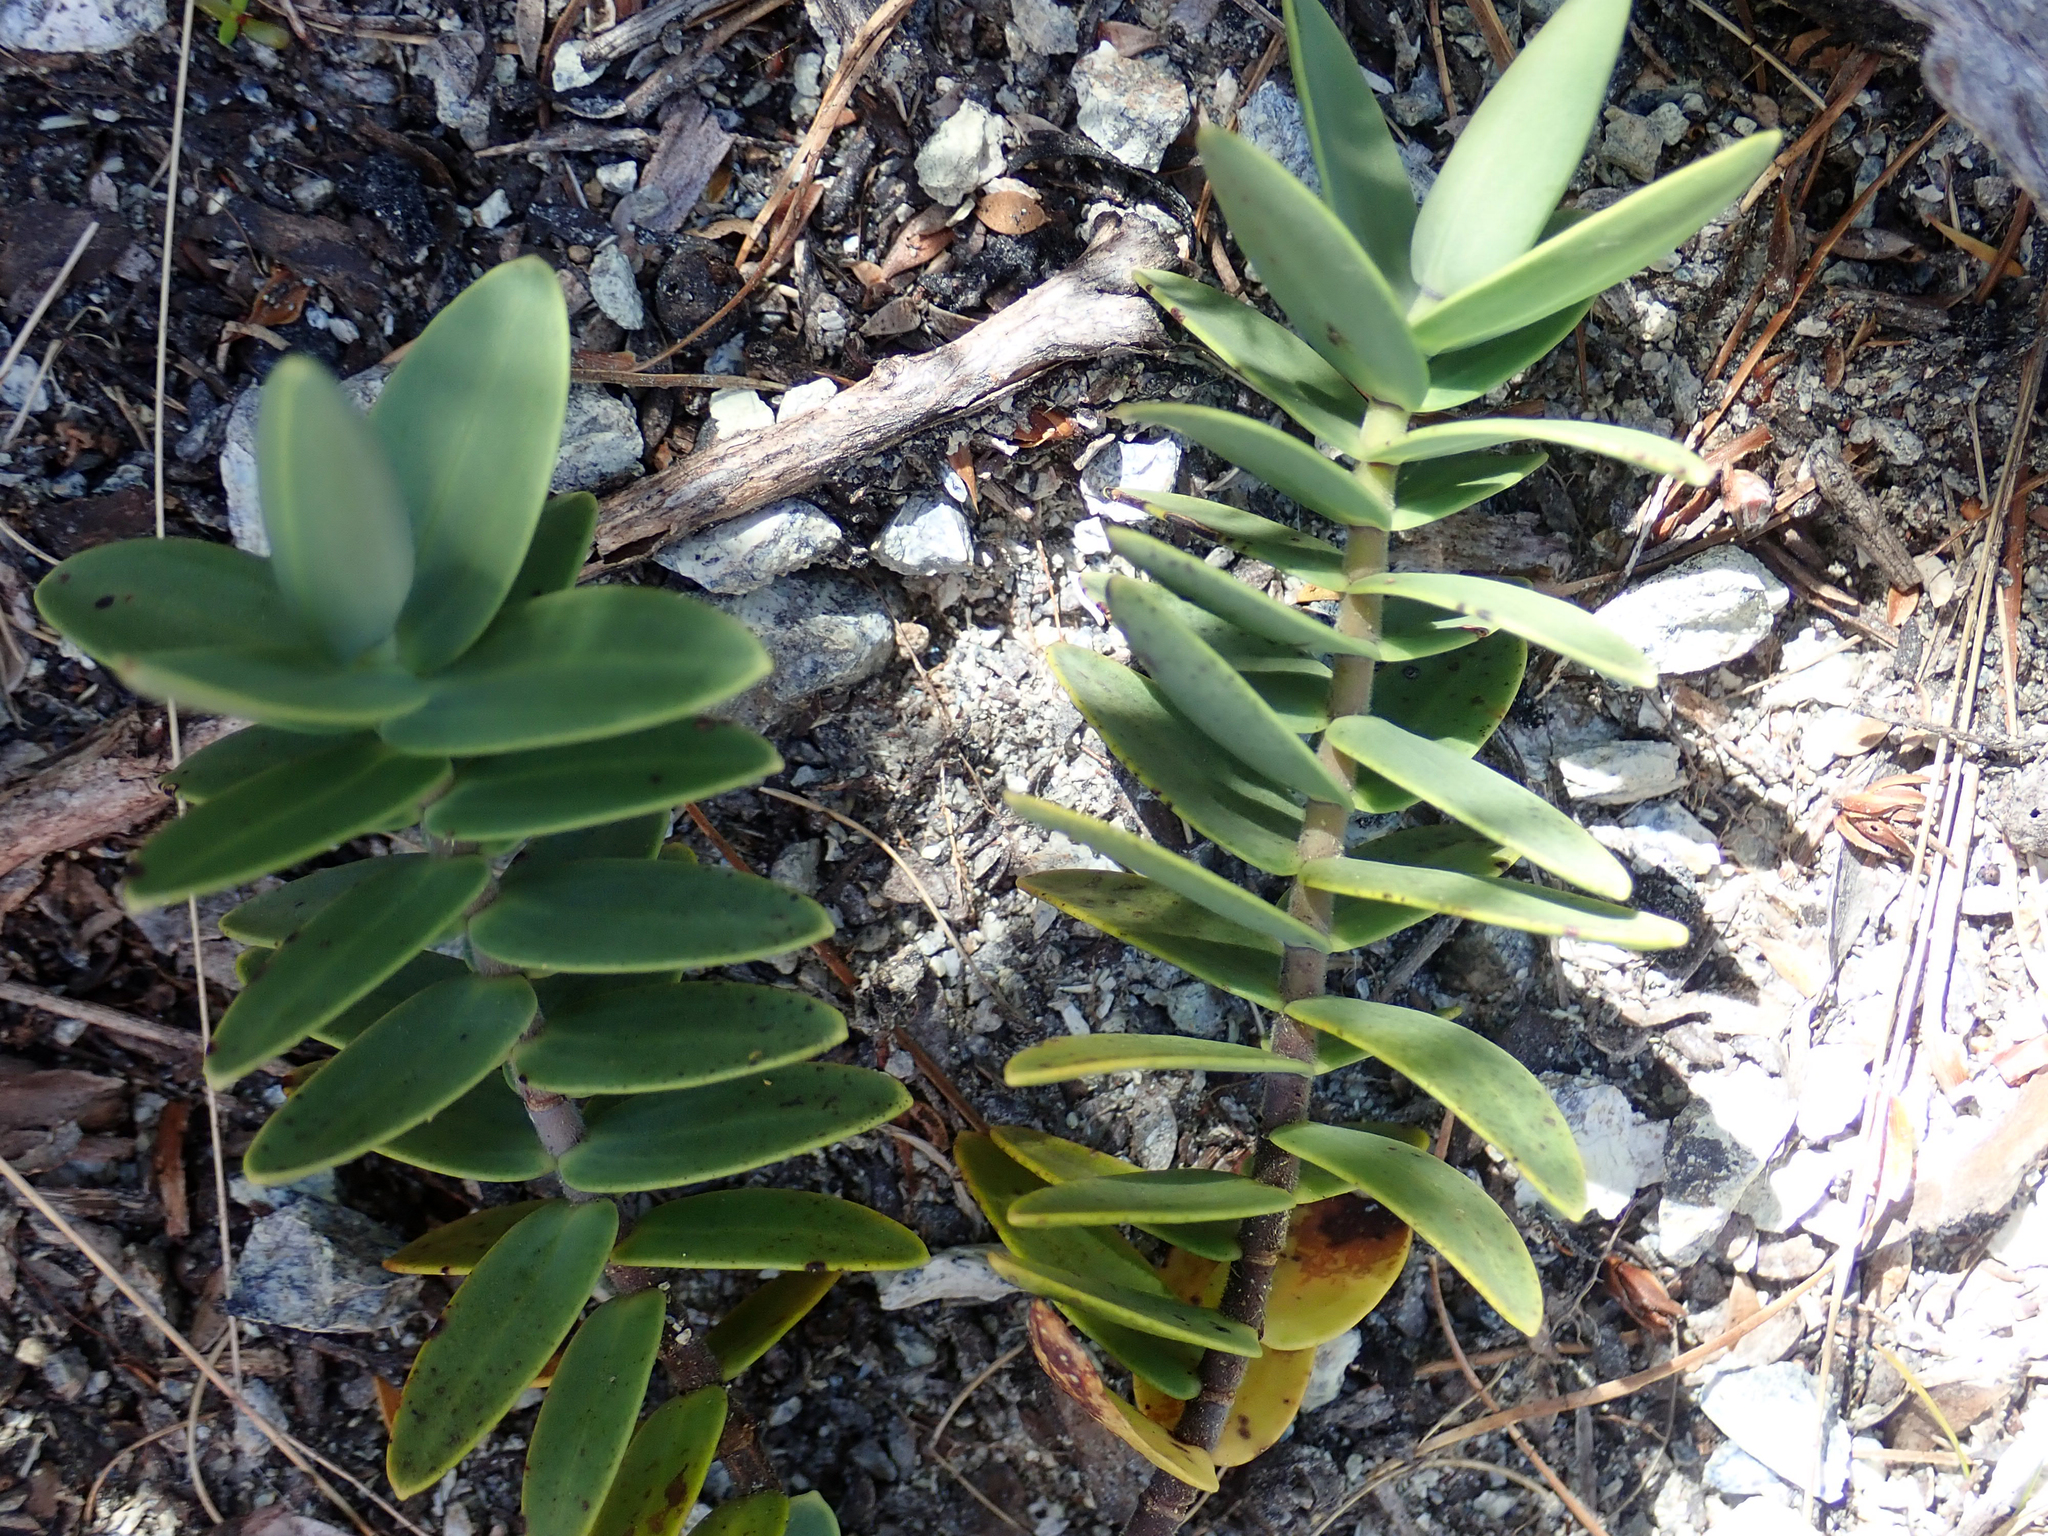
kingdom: Plantae
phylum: Tracheophyta
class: Magnoliopsida
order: Lamiales
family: Plantaginaceae
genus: Veronica
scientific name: Veronica albicans
